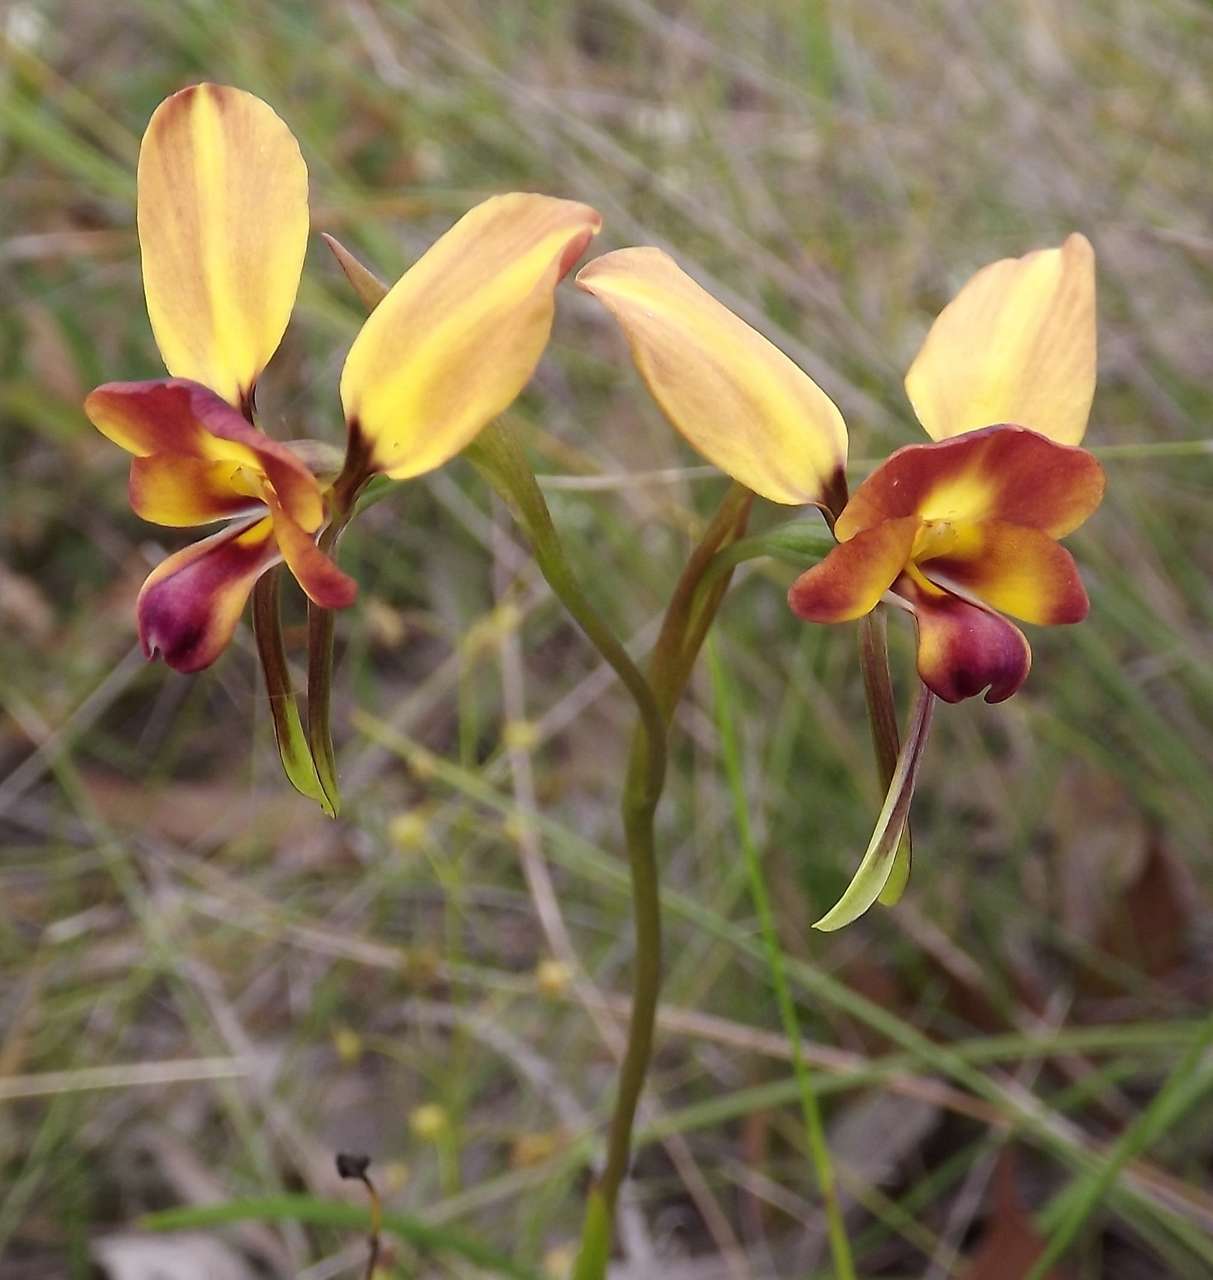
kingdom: Plantae
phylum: Tracheophyta
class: Liliopsida
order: Asparagales
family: Orchidaceae
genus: Diuris
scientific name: Diuris orientis
